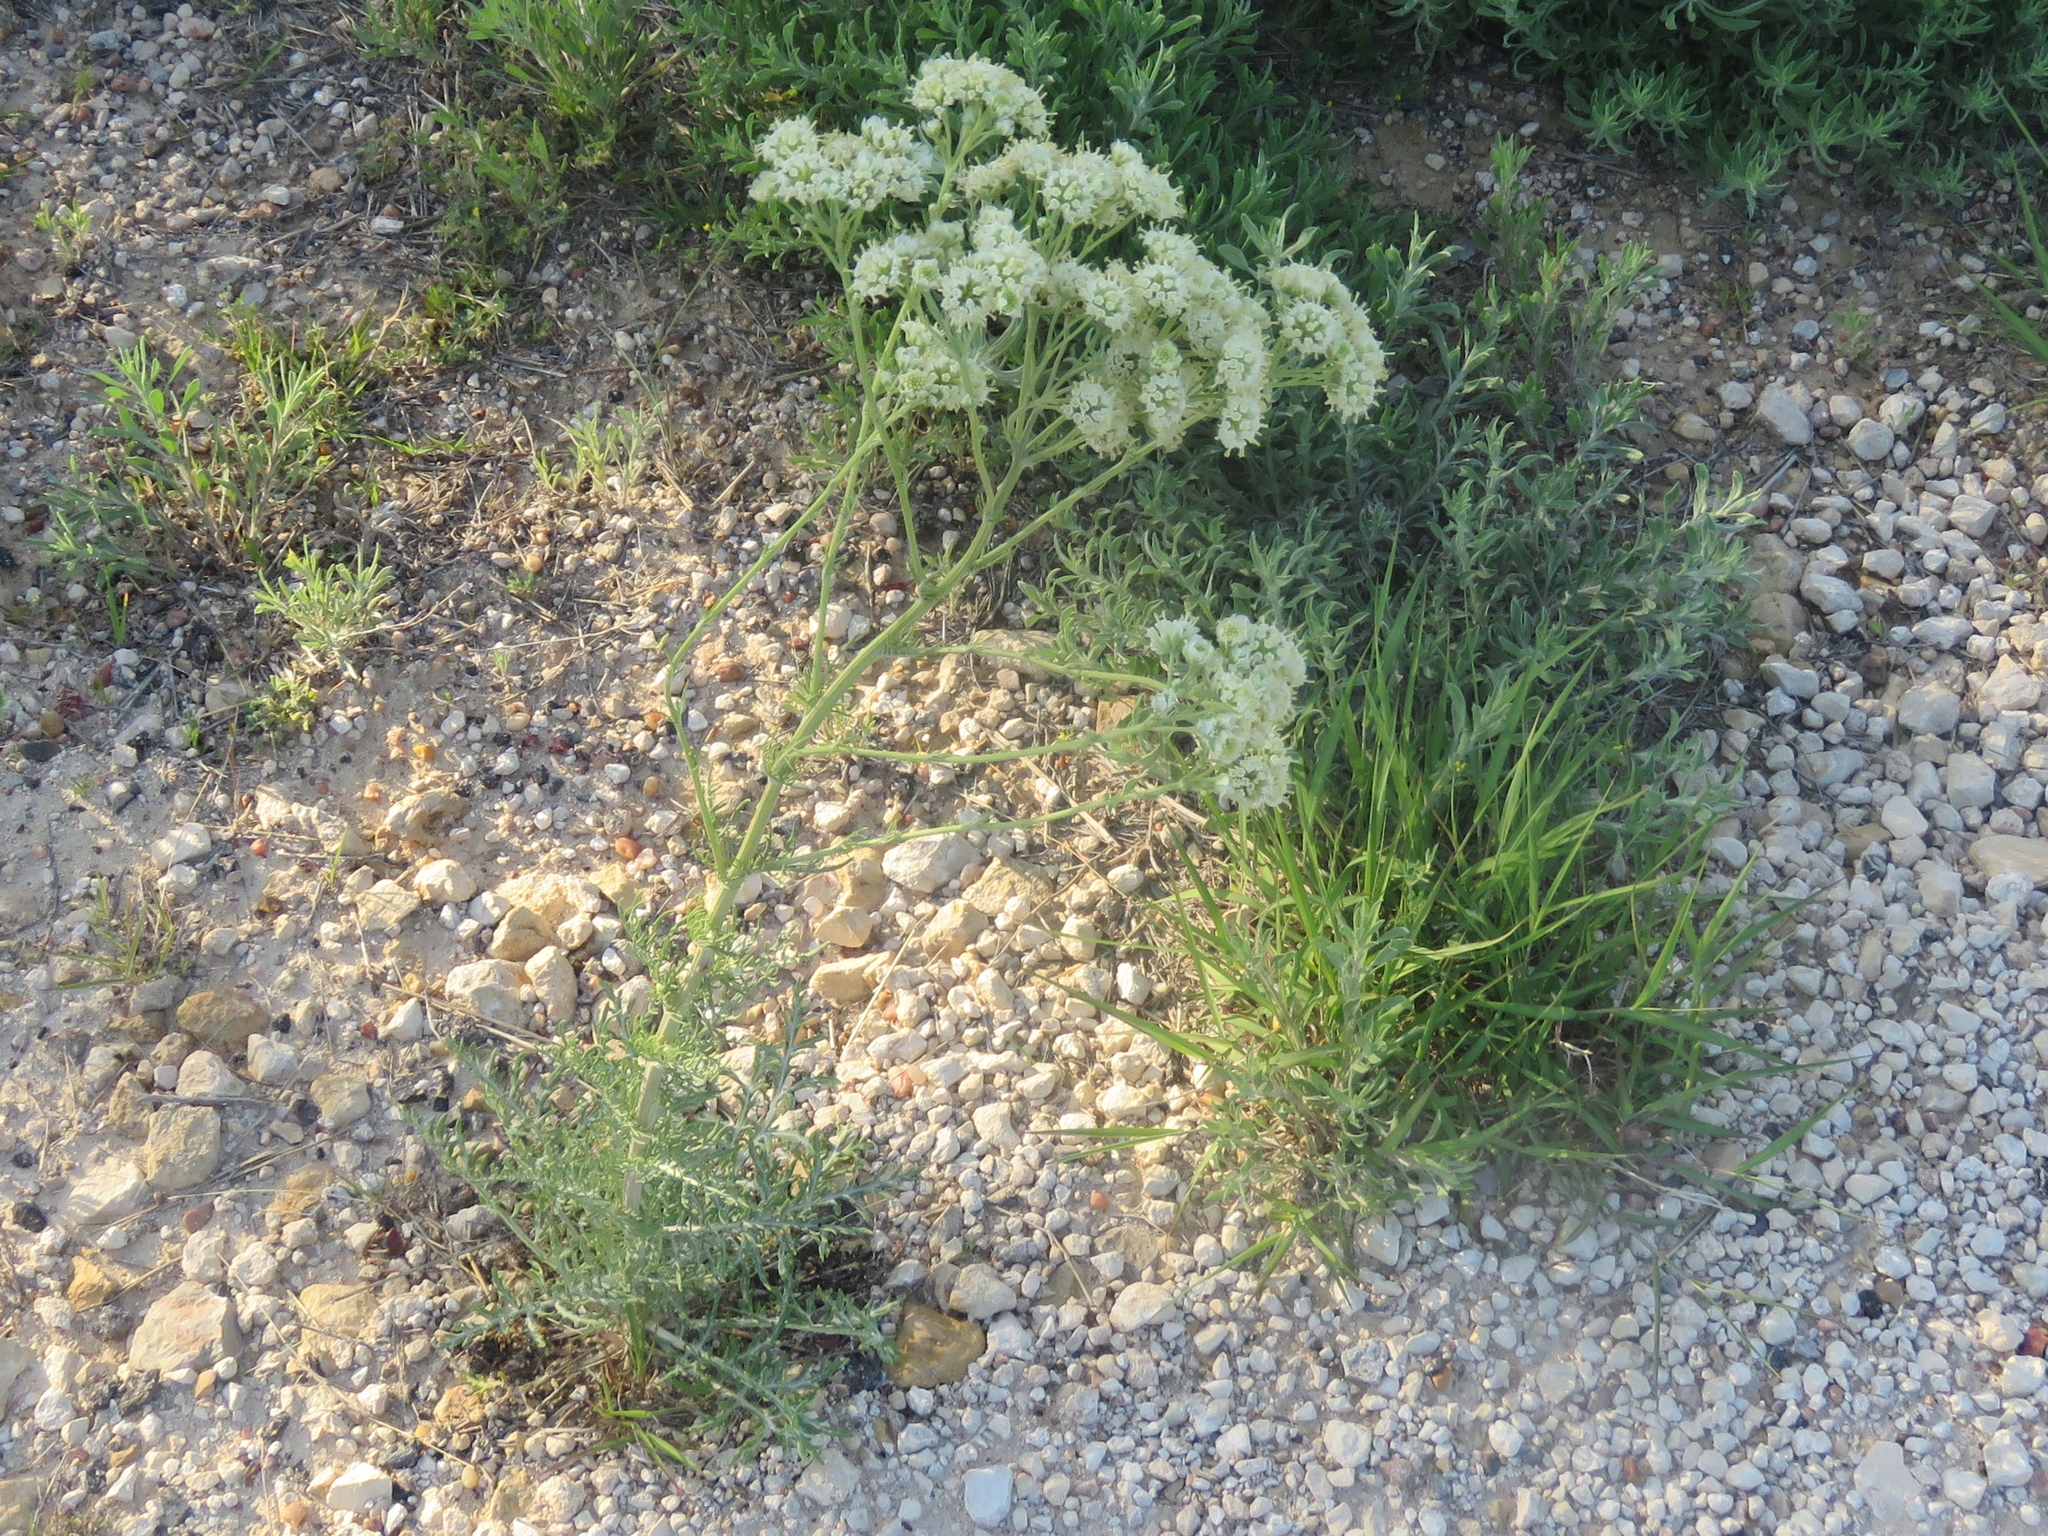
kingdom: Plantae
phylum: Tracheophyta
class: Magnoliopsida
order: Asterales
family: Asteraceae
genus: Hymenopappus
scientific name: Hymenopappus scabiosaeus
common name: Carolina woollywhite
